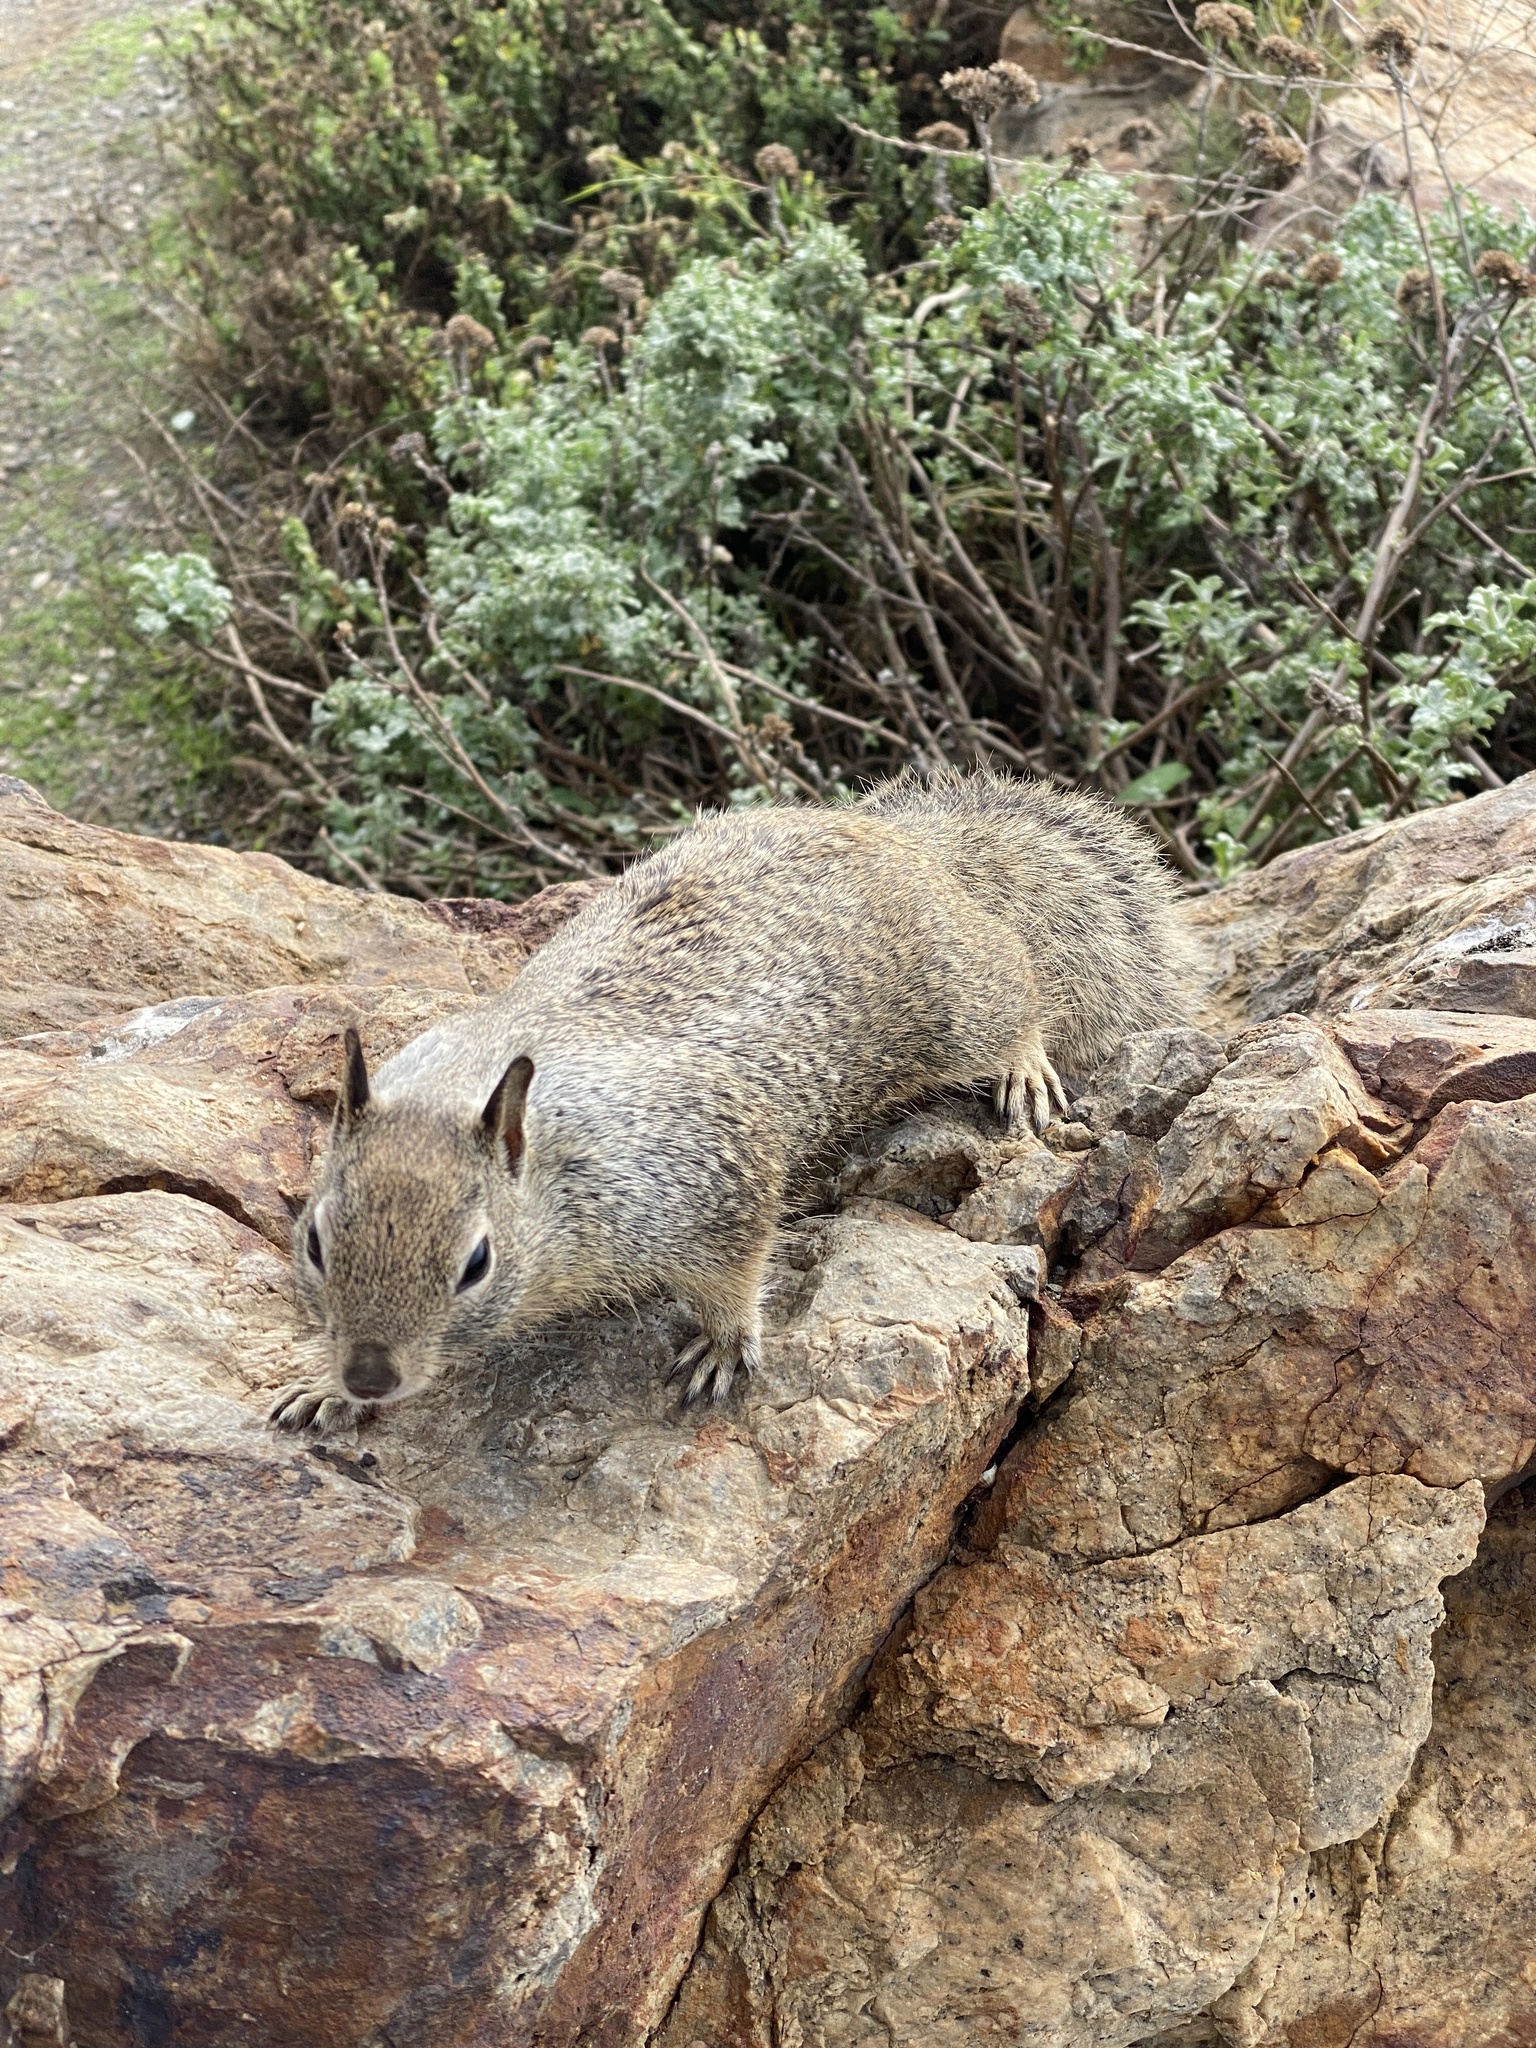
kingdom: Animalia
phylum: Chordata
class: Mammalia
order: Rodentia
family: Sciuridae
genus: Otospermophilus
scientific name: Otospermophilus beecheyi
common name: California ground squirrel
